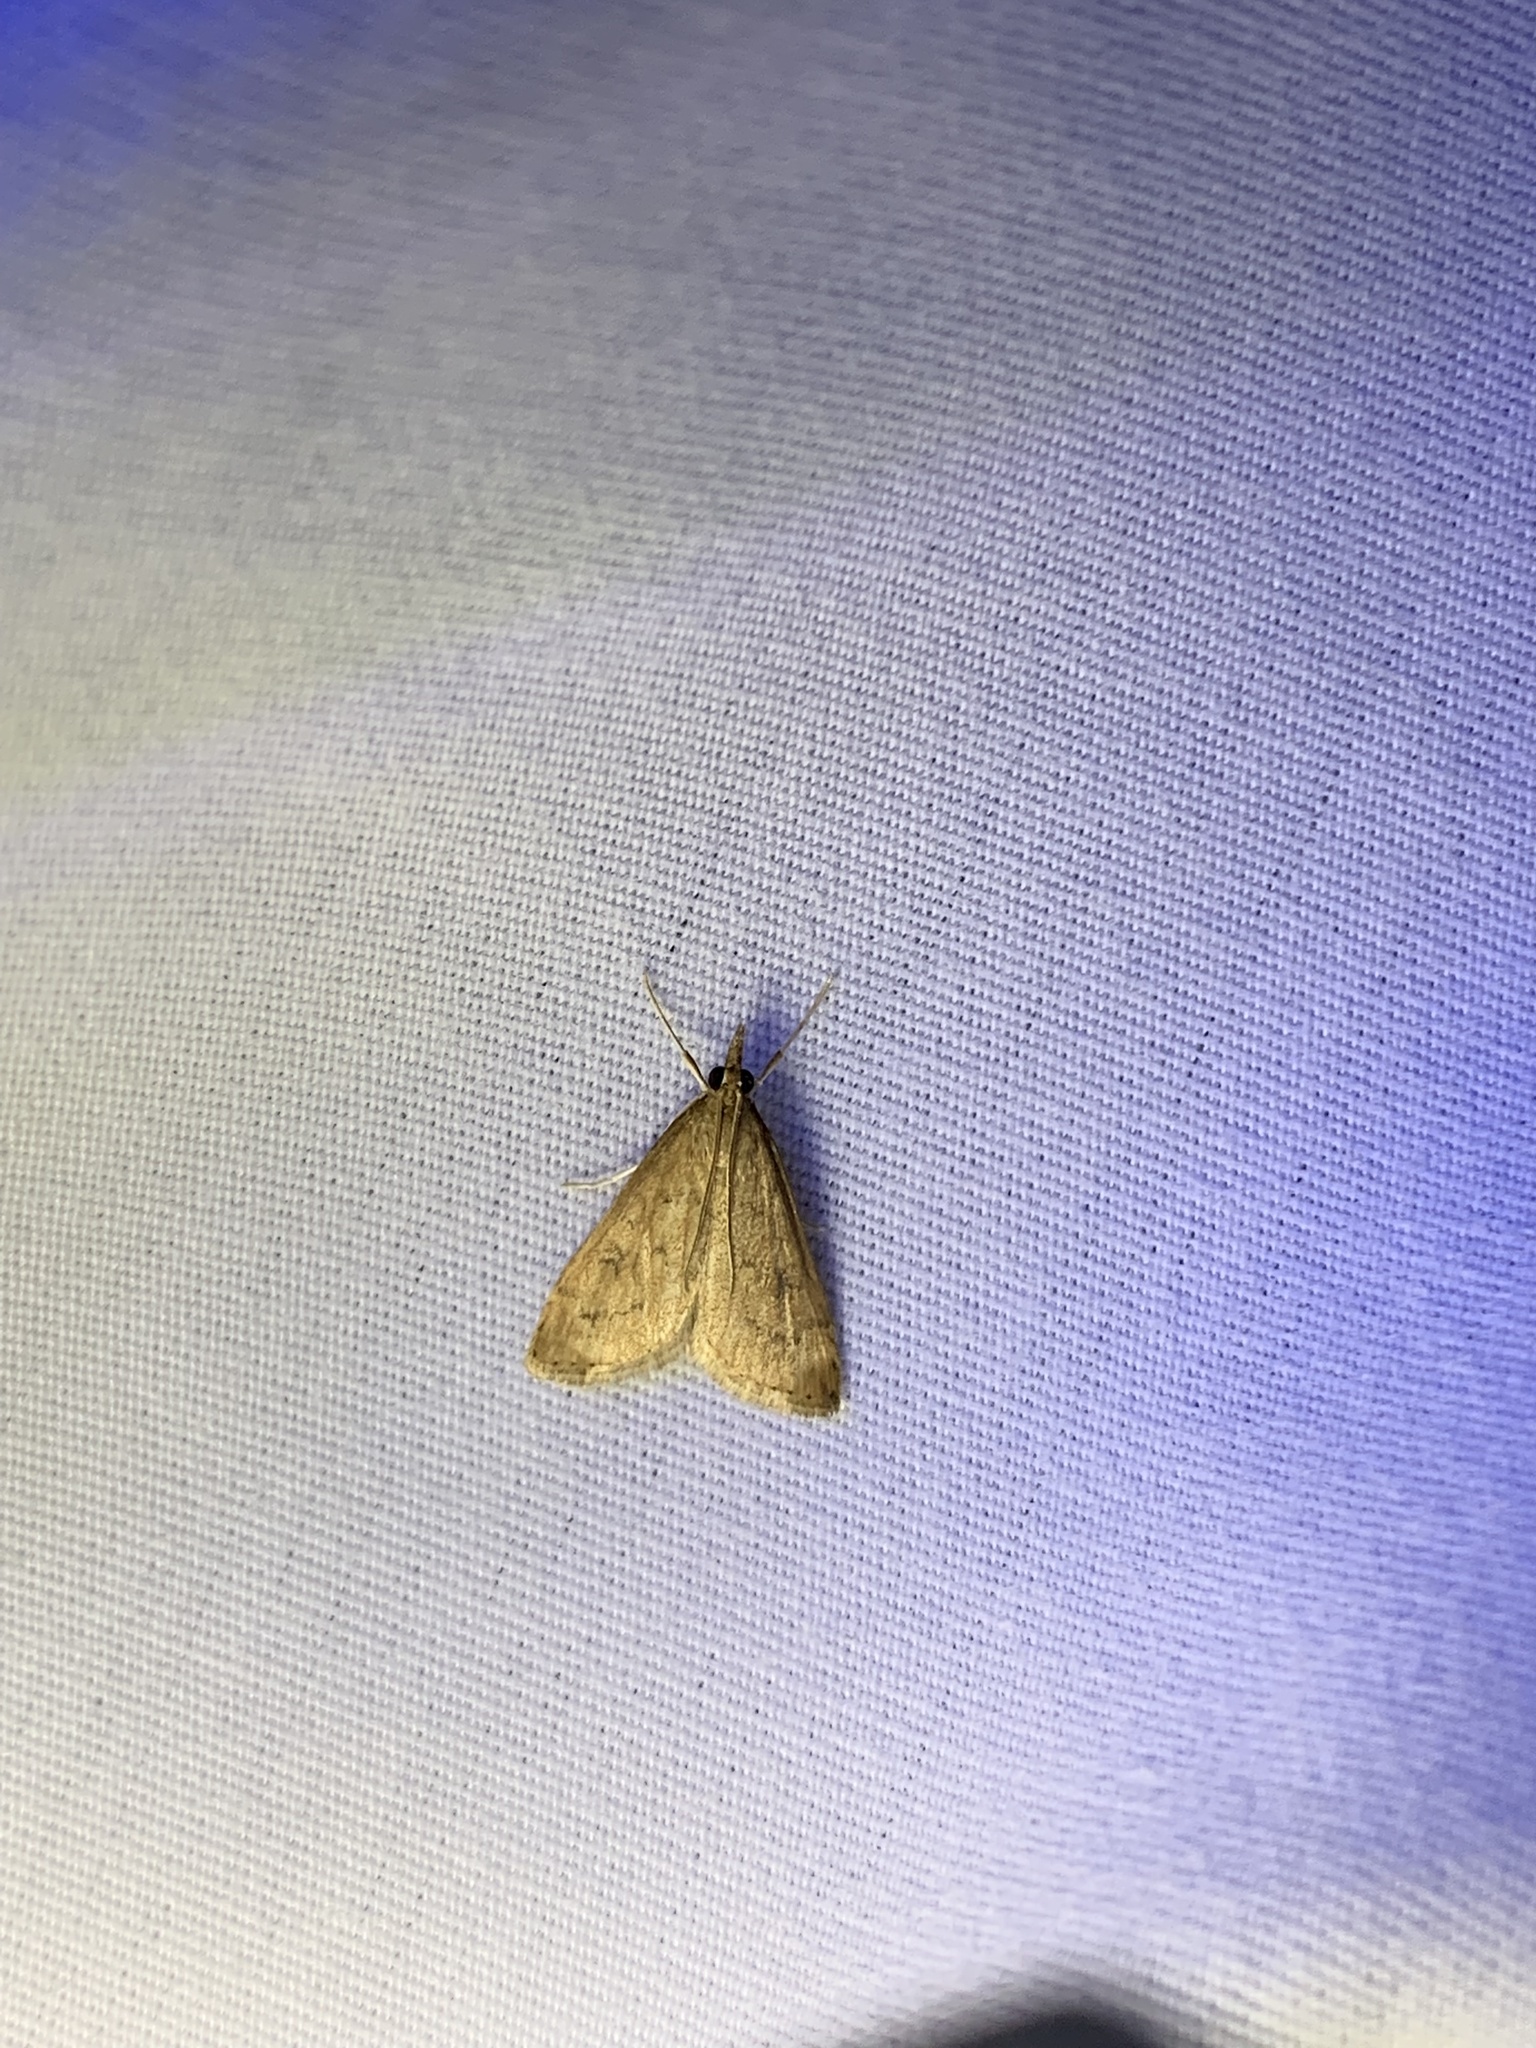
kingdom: Animalia
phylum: Arthropoda
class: Insecta
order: Lepidoptera
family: Crambidae
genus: Udea
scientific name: Udea rubigalis
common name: Celery leaftier moth
